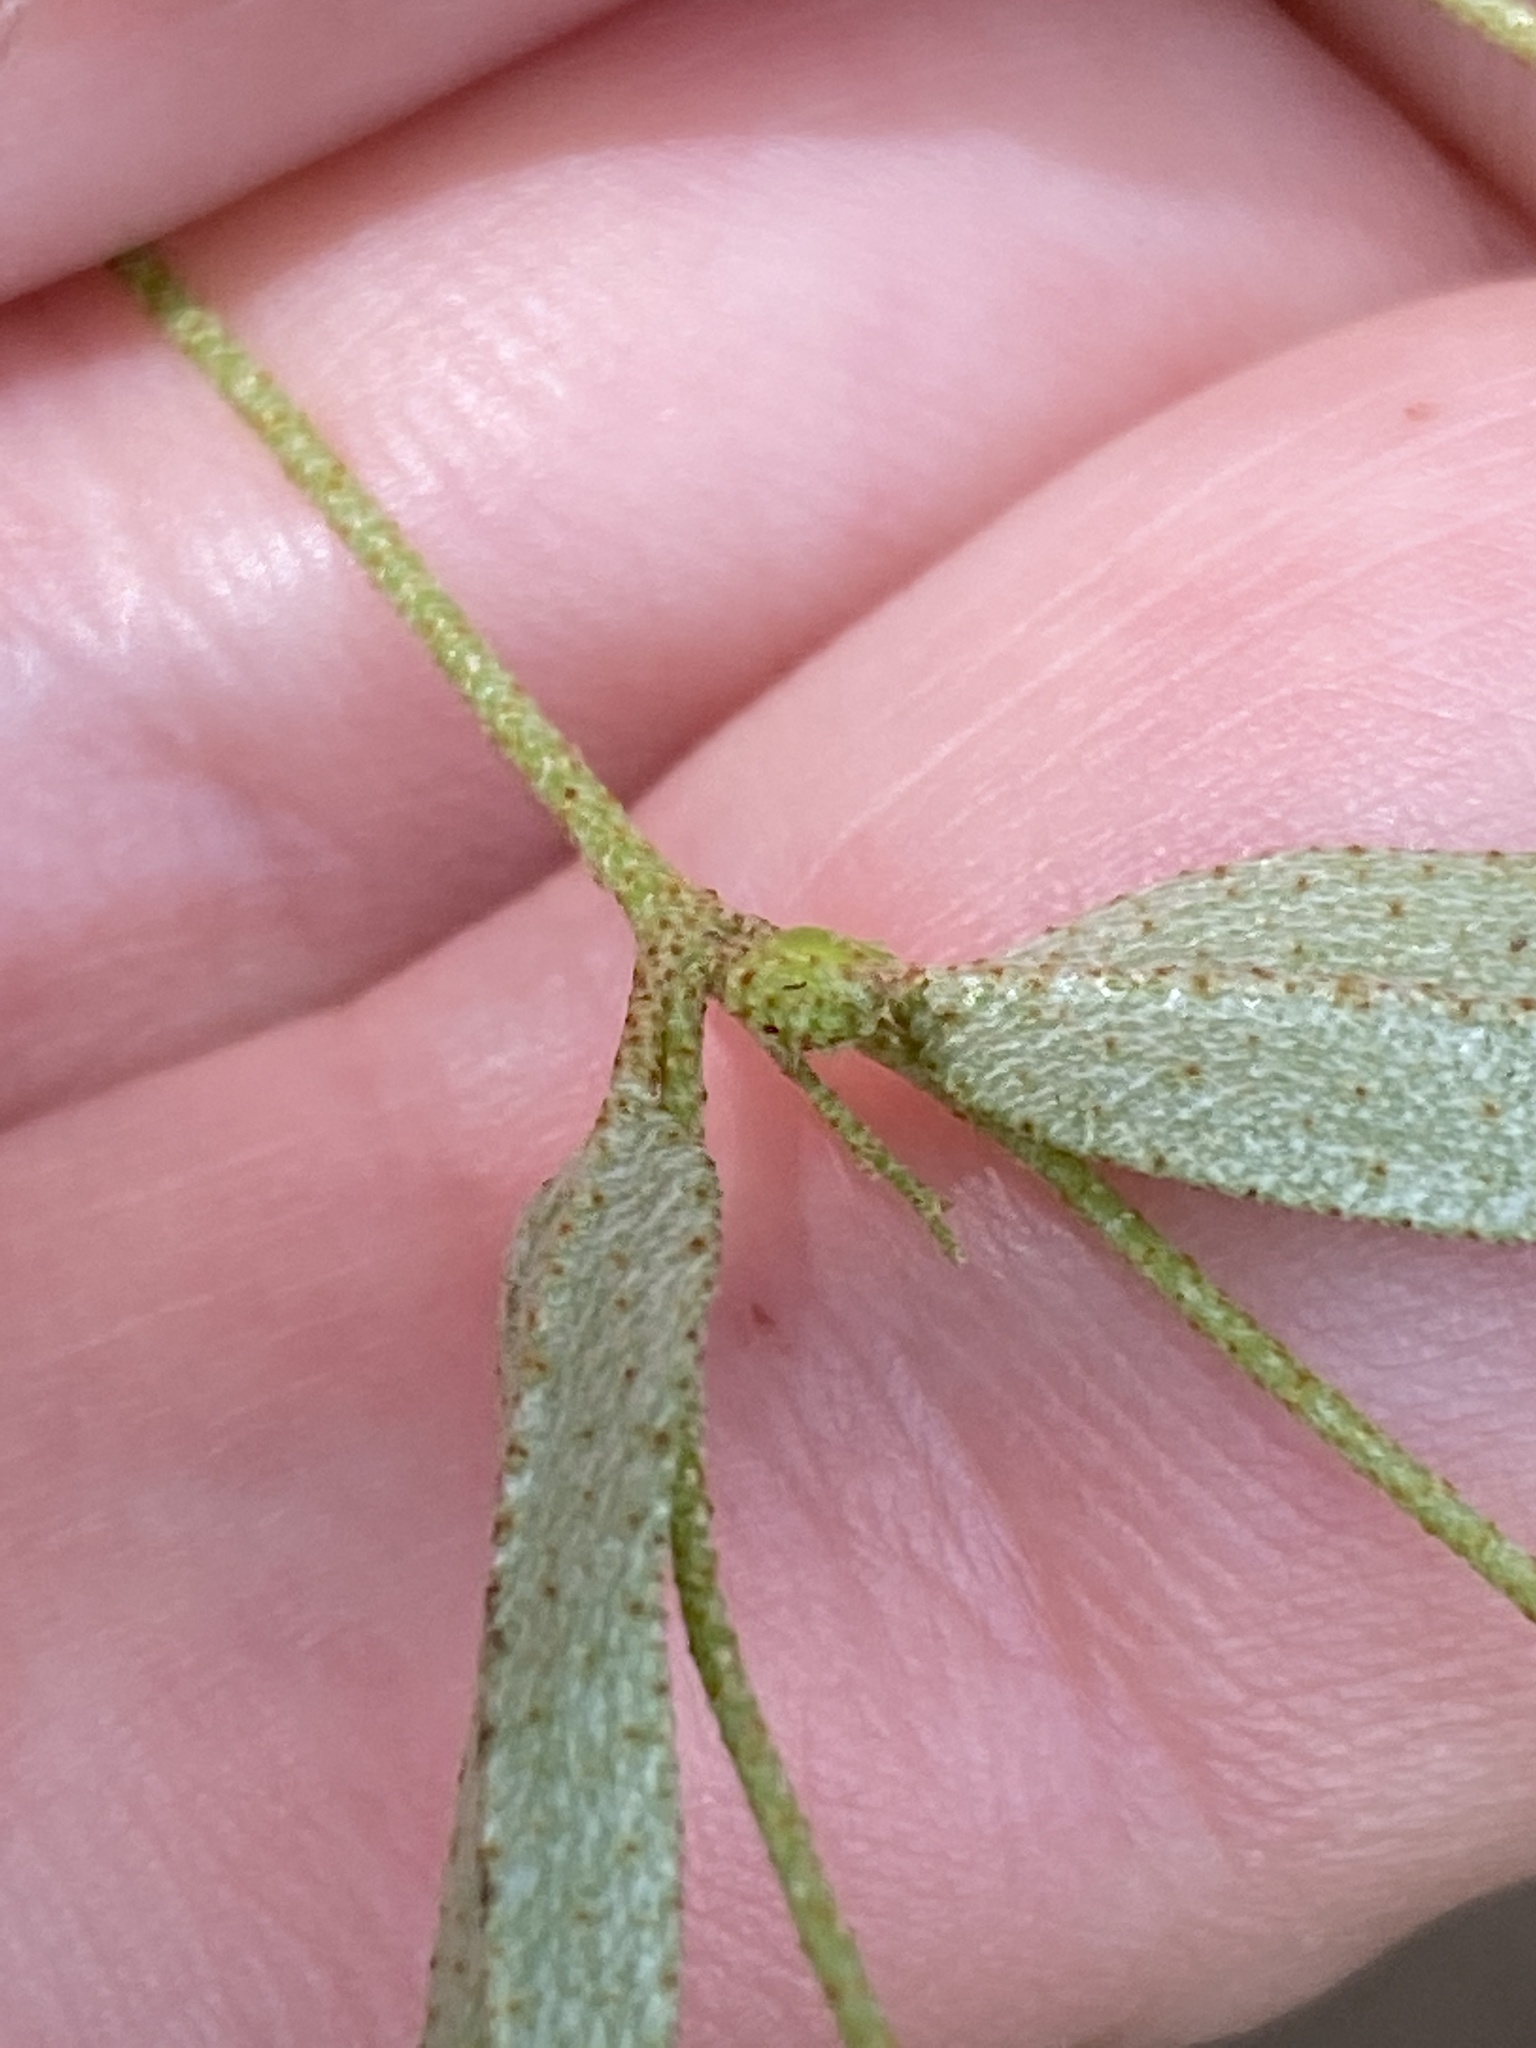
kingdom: Plantae
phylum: Tracheophyta
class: Magnoliopsida
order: Malpighiales
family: Euphorbiaceae
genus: Croton
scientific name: Croton michauxii
